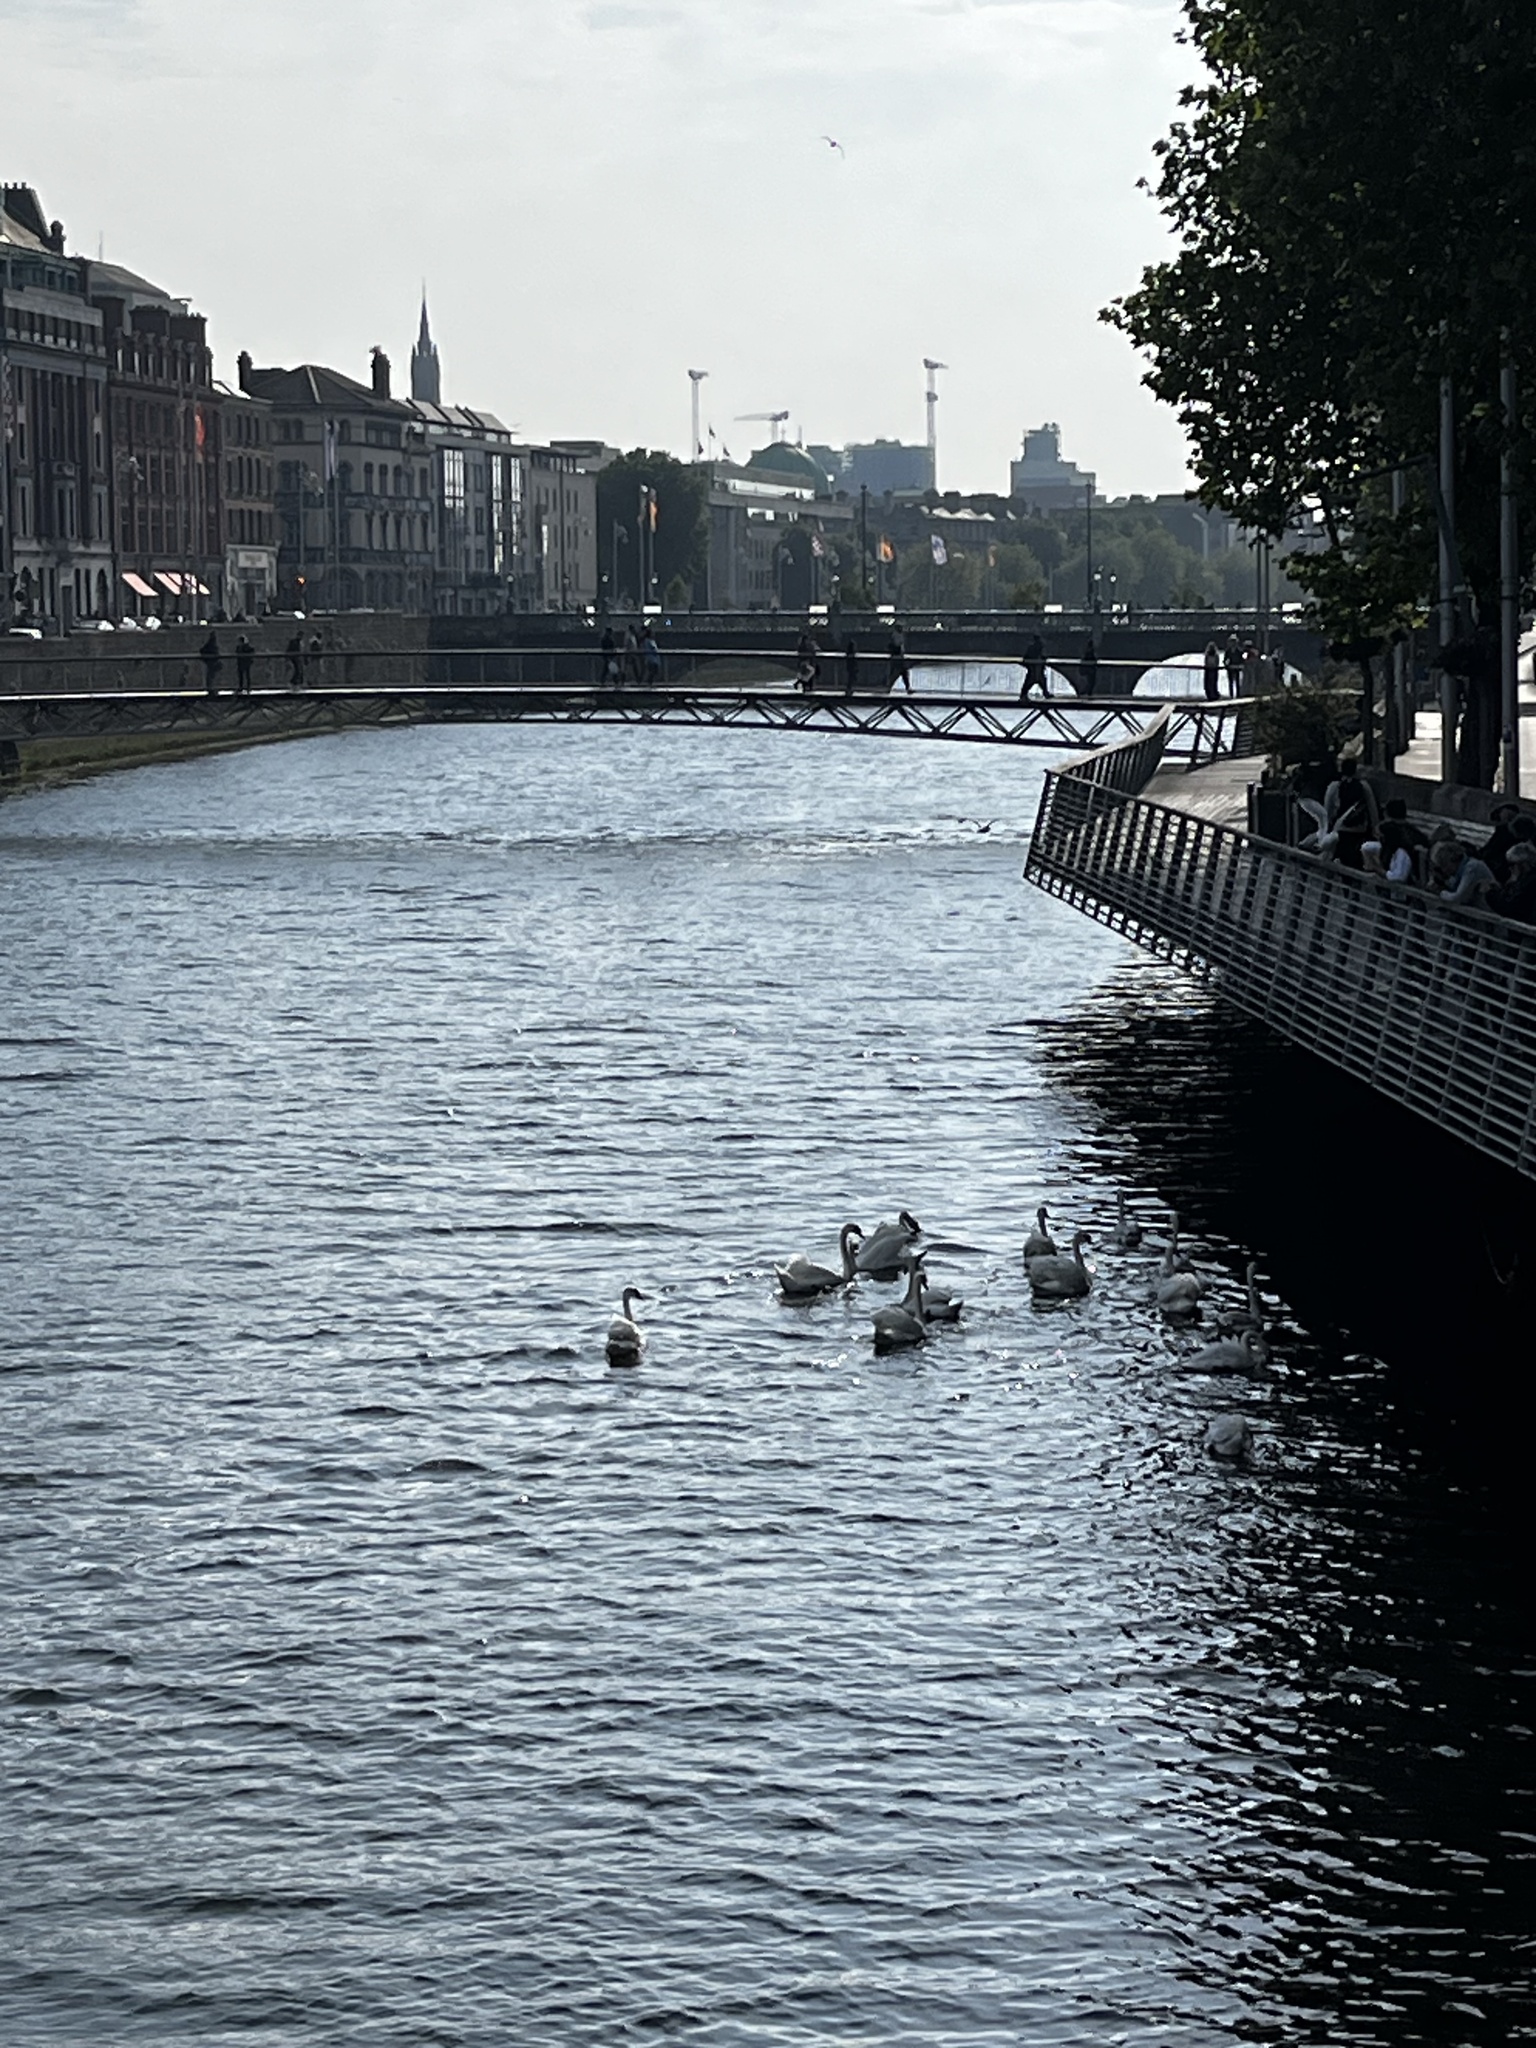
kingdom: Animalia
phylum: Chordata
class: Aves
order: Anseriformes
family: Anatidae
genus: Cygnus
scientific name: Cygnus olor
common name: Mute swan
